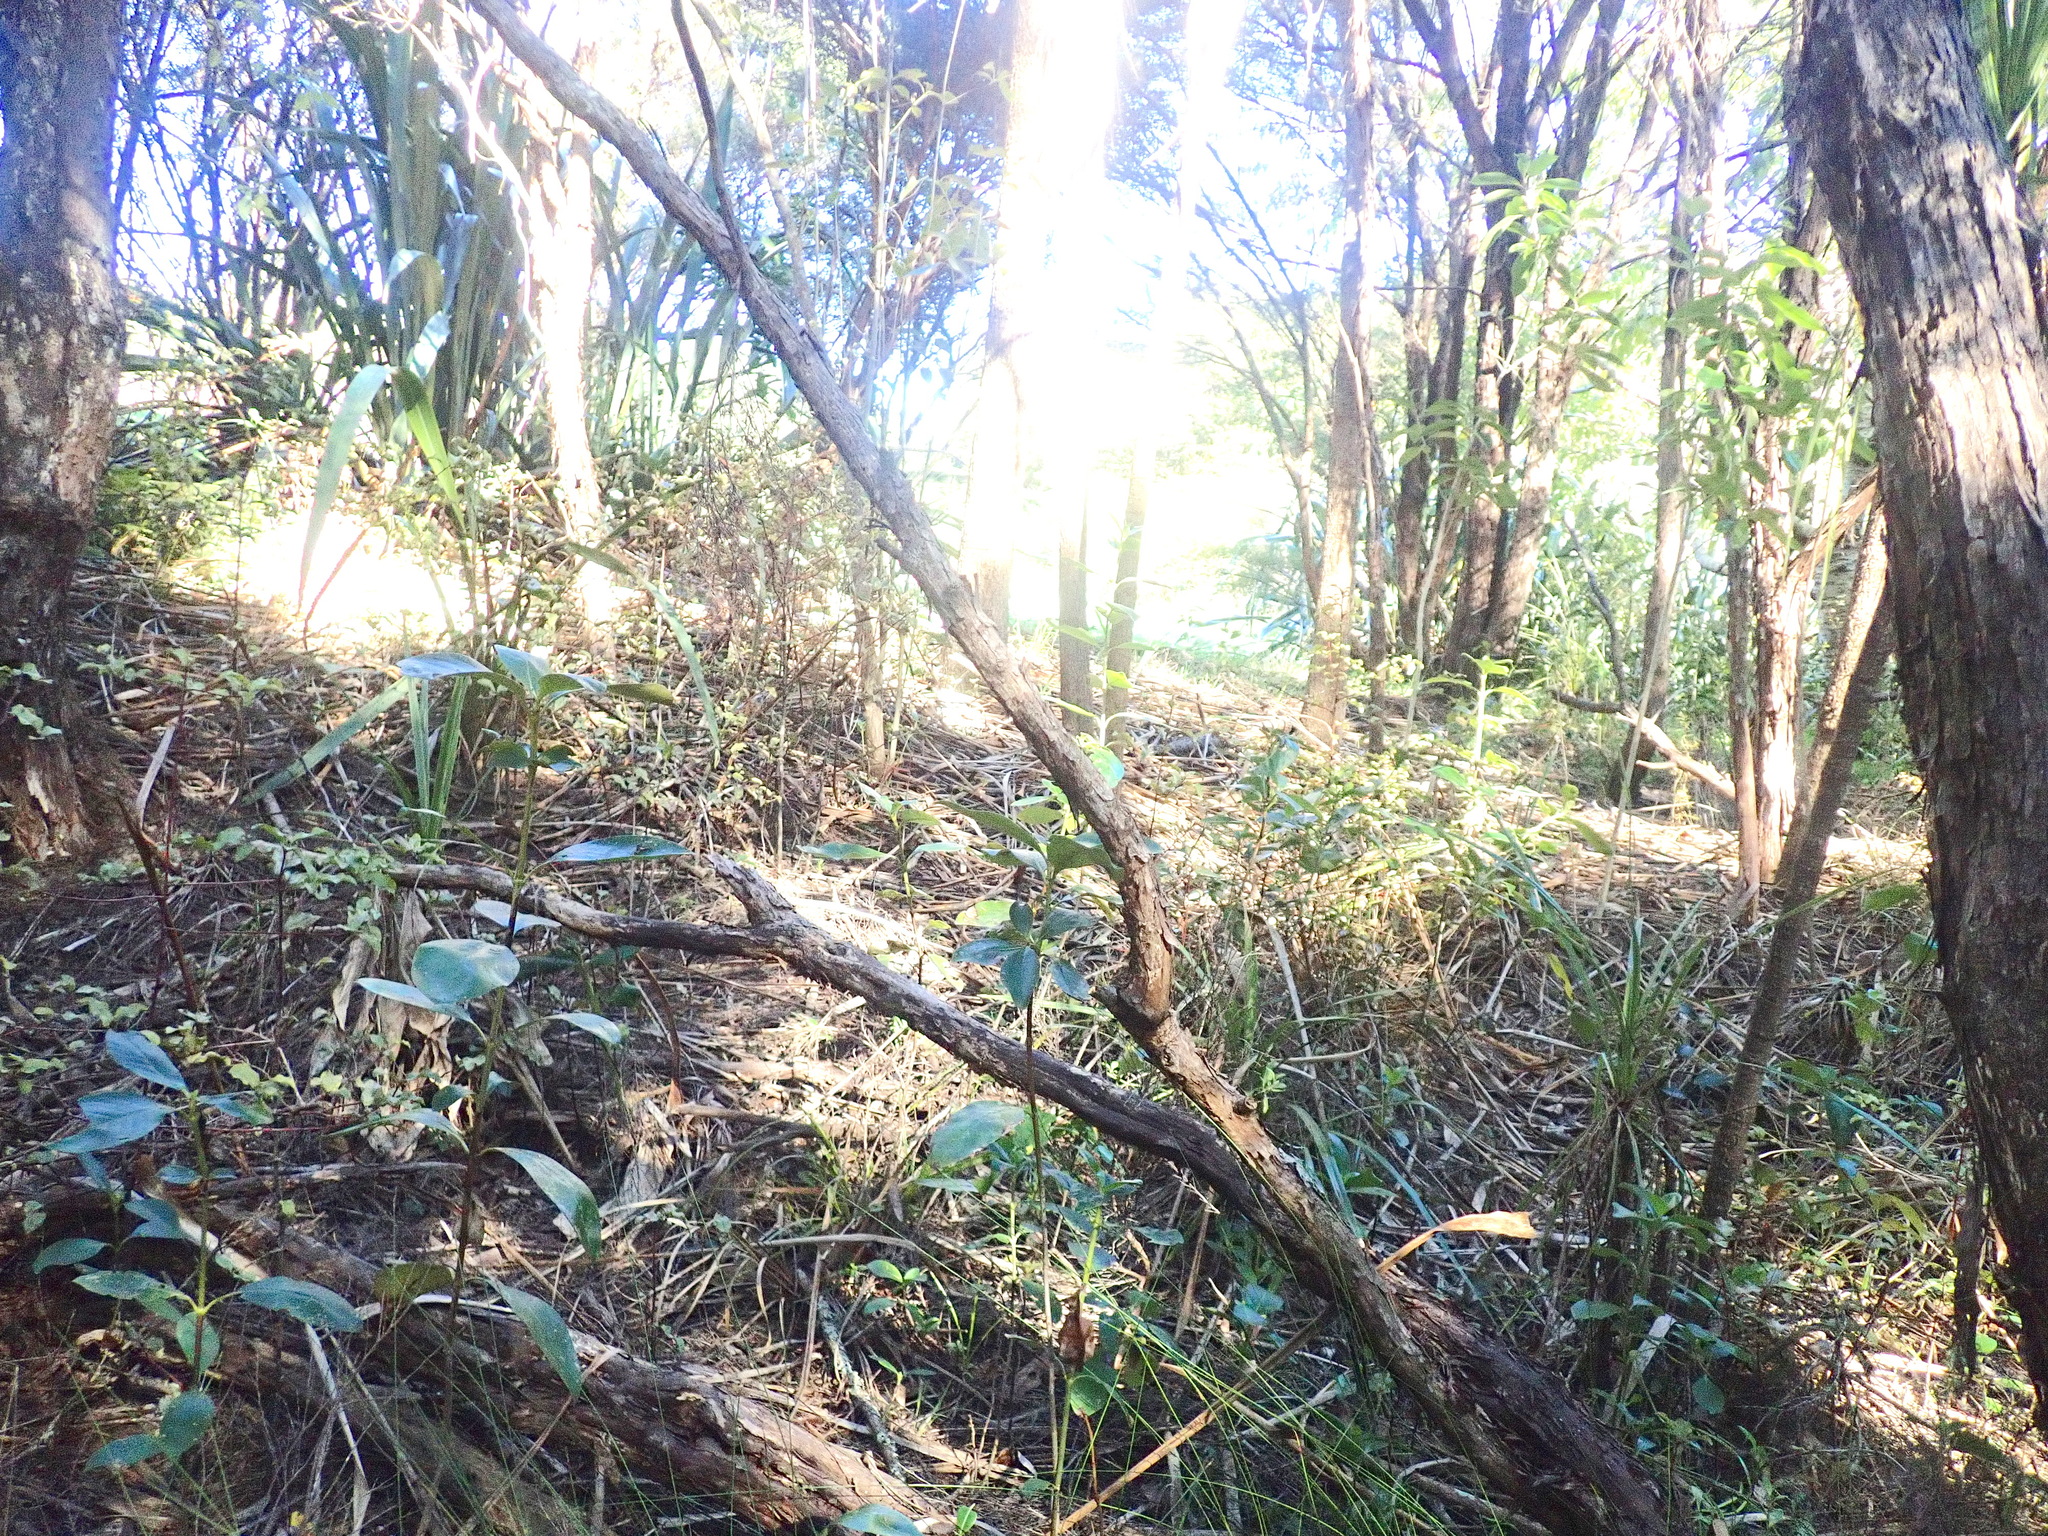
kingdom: Plantae
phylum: Tracheophyta
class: Magnoliopsida
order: Gentianales
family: Rubiaceae
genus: Coprosma
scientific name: Coprosma robusta
